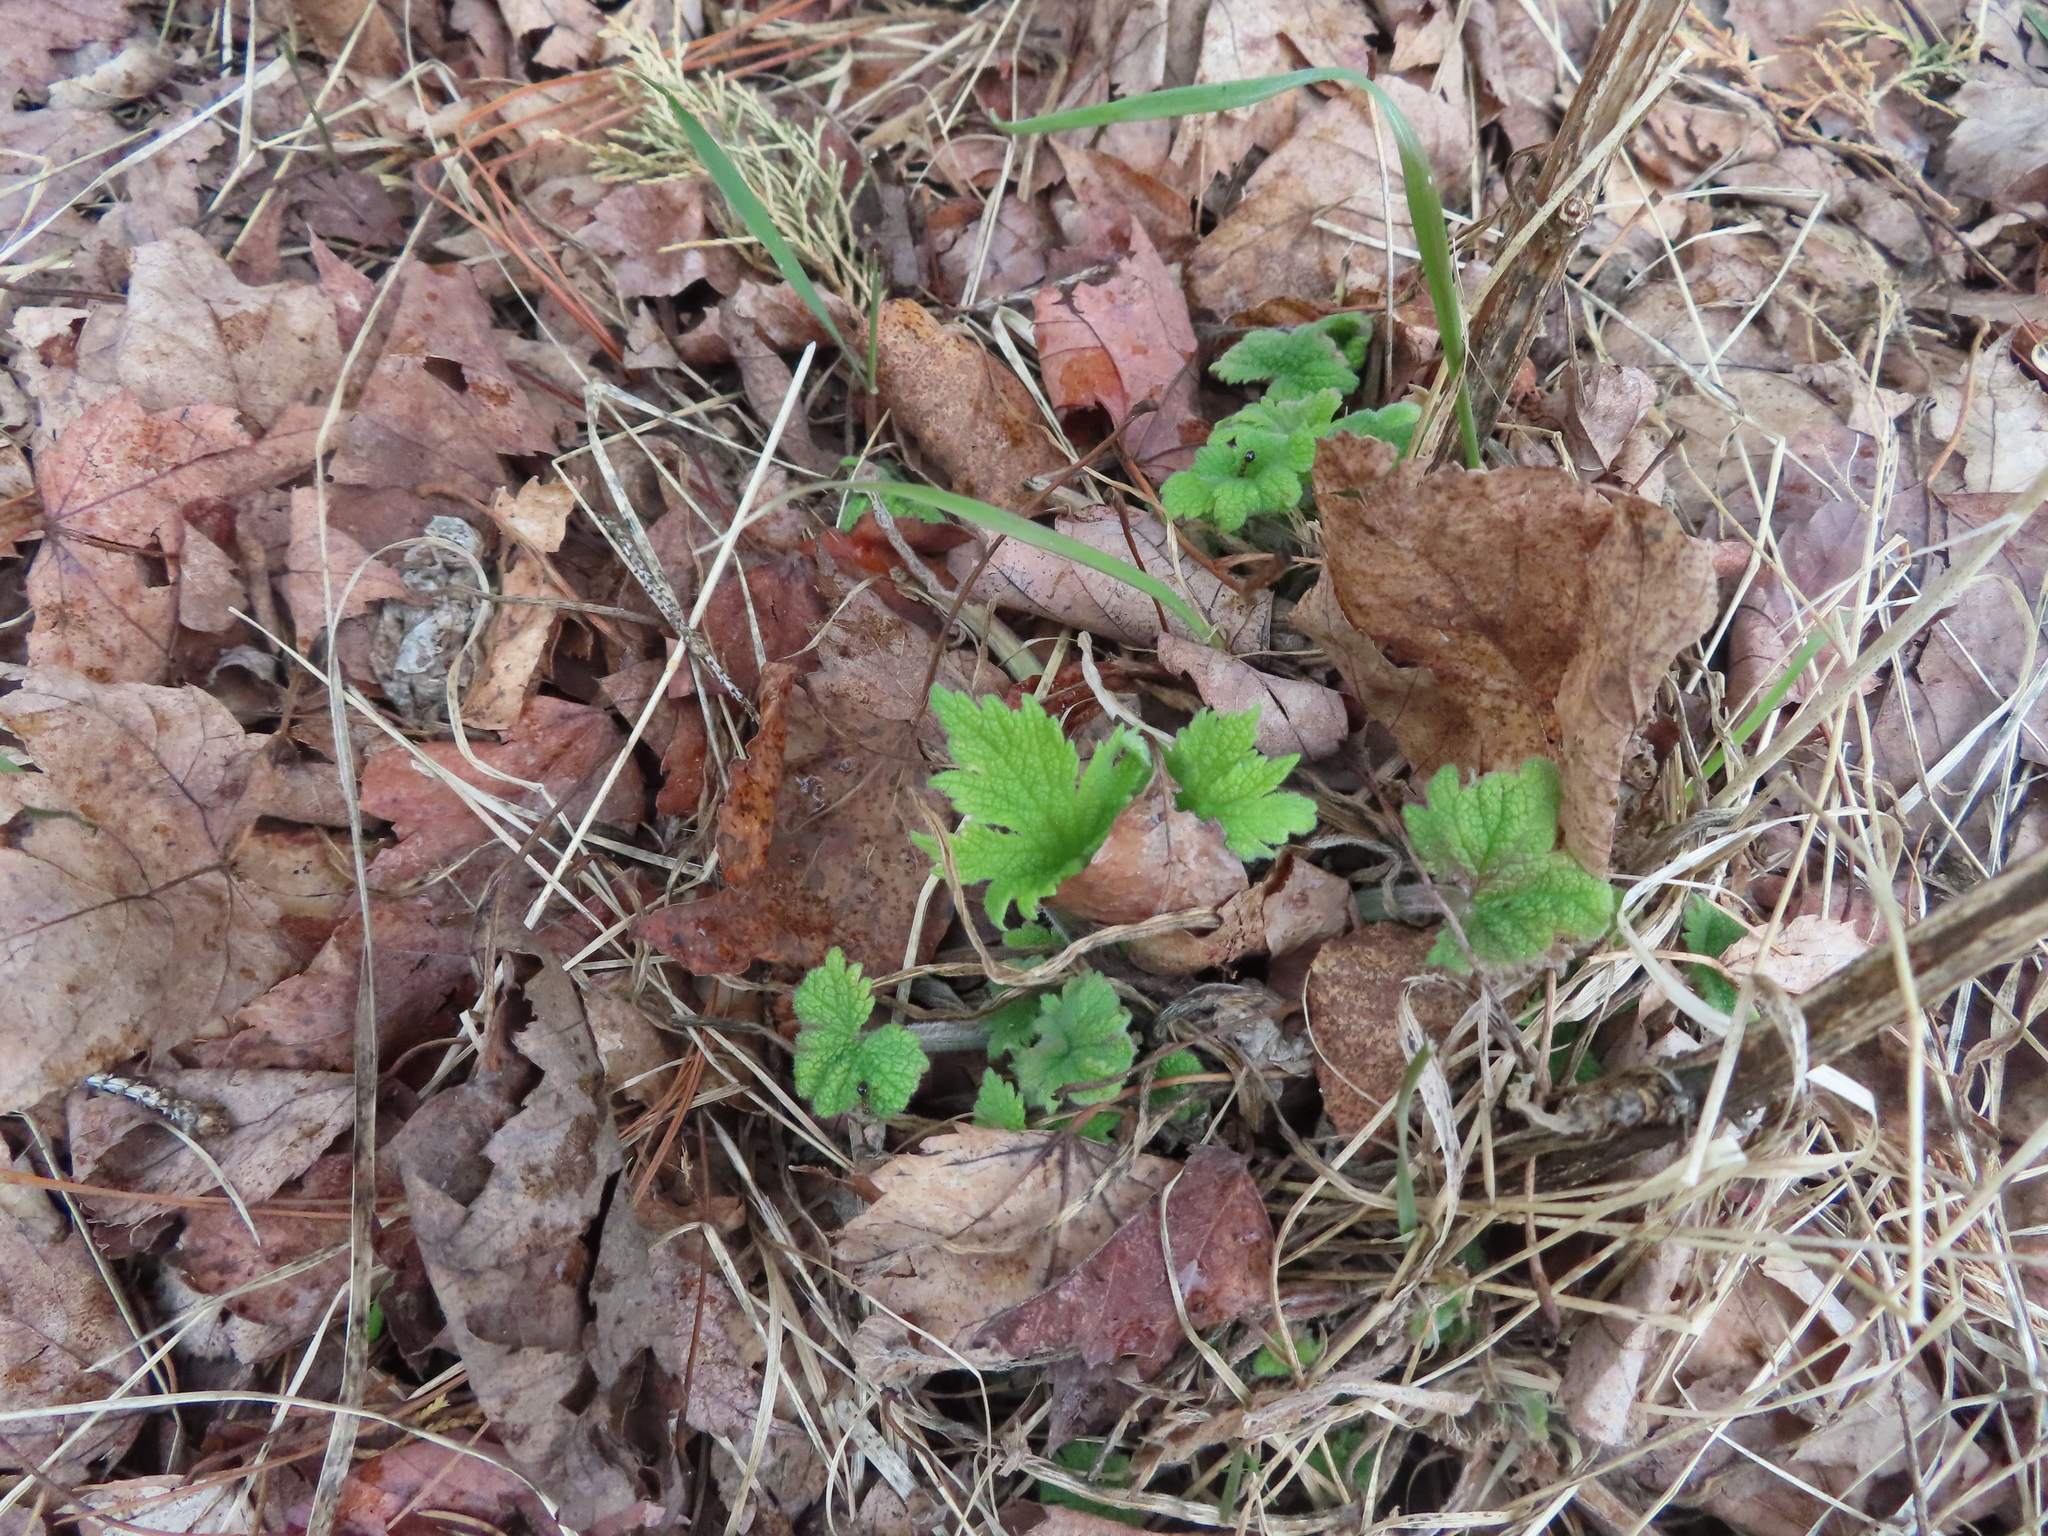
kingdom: Plantae
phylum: Tracheophyta
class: Magnoliopsida
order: Lamiales
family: Lamiaceae
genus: Leonurus
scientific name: Leonurus cardiaca
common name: Motherwort
